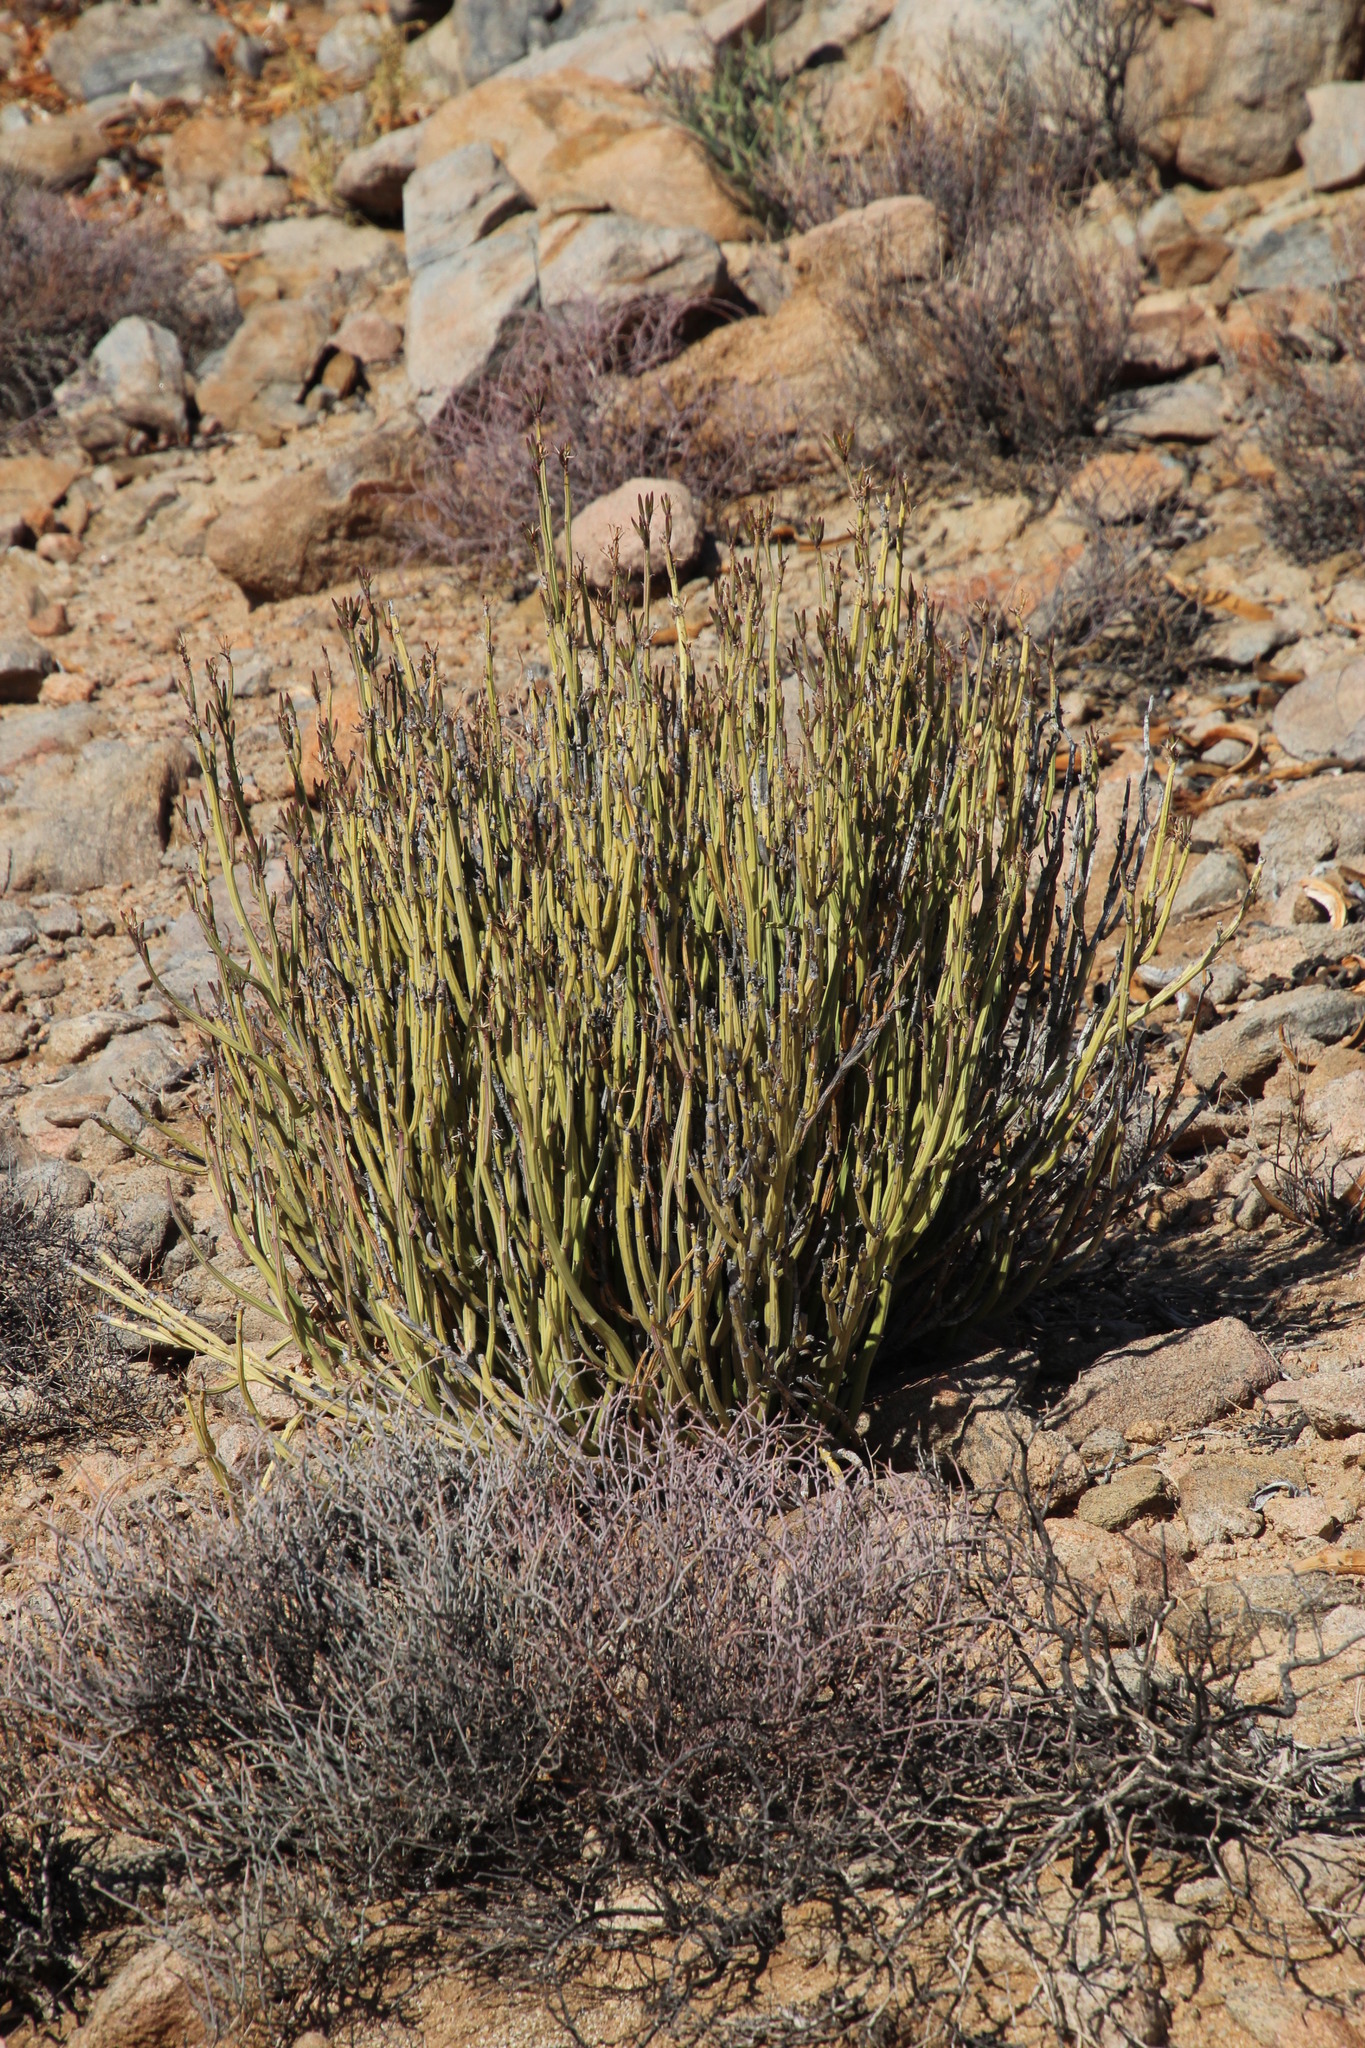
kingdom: Plantae
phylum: Tracheophyta
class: Magnoliopsida
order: Asterales
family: Asteraceae
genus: Curio
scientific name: Curio avasimontanus
